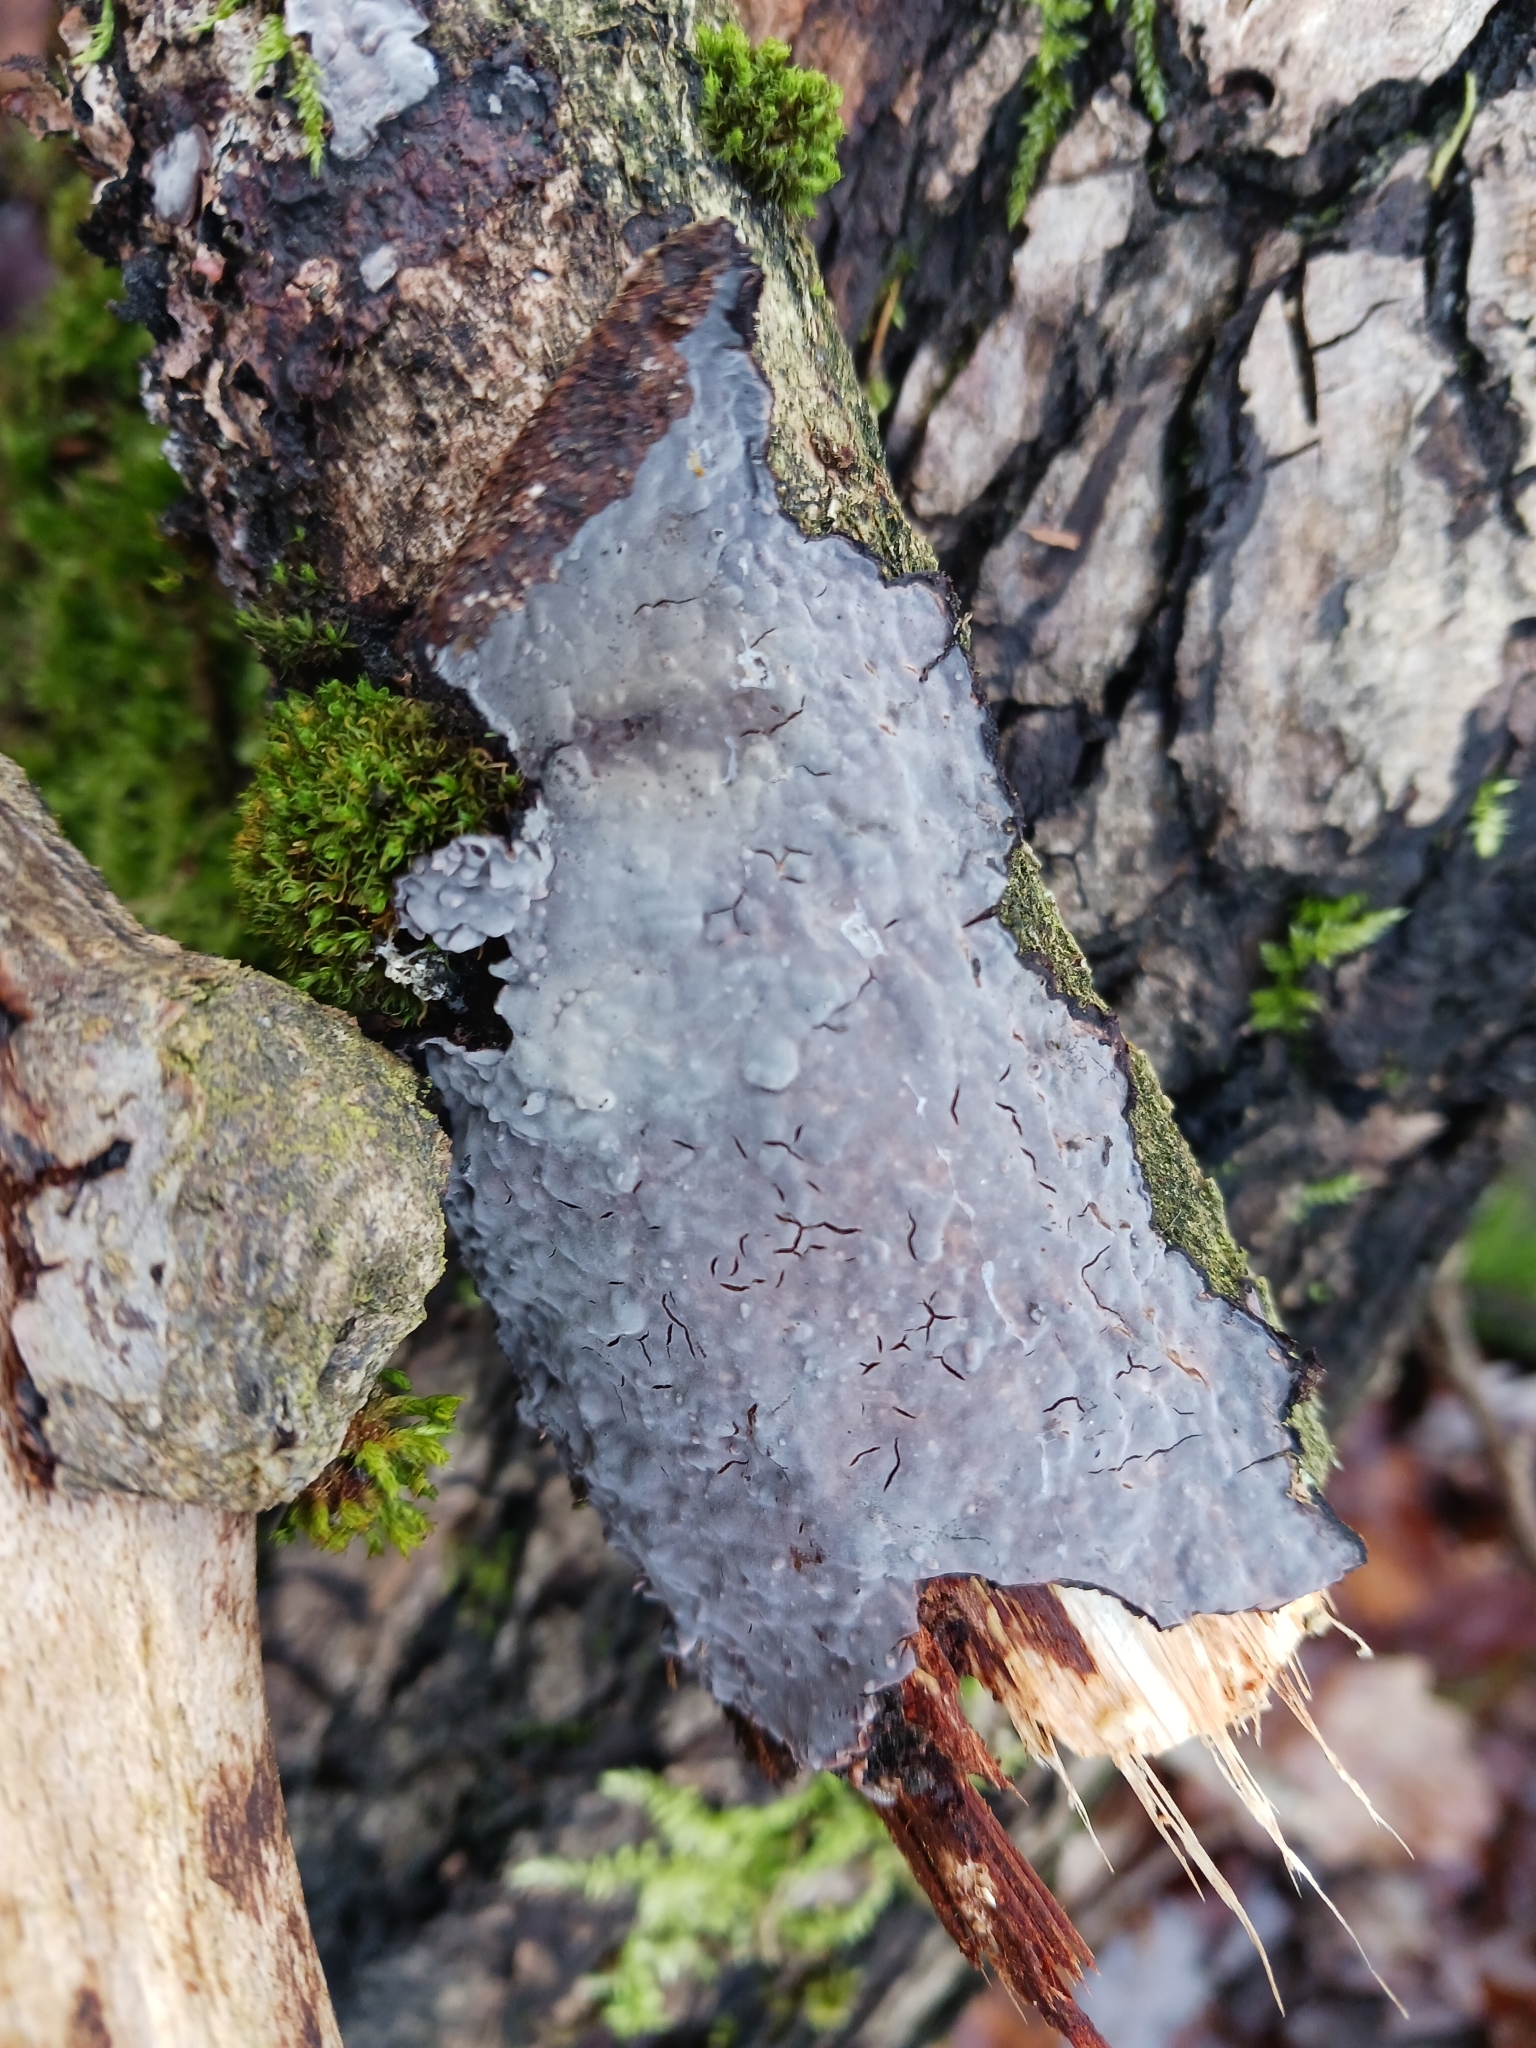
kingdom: Fungi
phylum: Basidiomycota
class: Agaricomycetes
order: Russulales
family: Peniophoraceae
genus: Peniophora
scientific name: Peniophora quercina
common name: Oak crust
